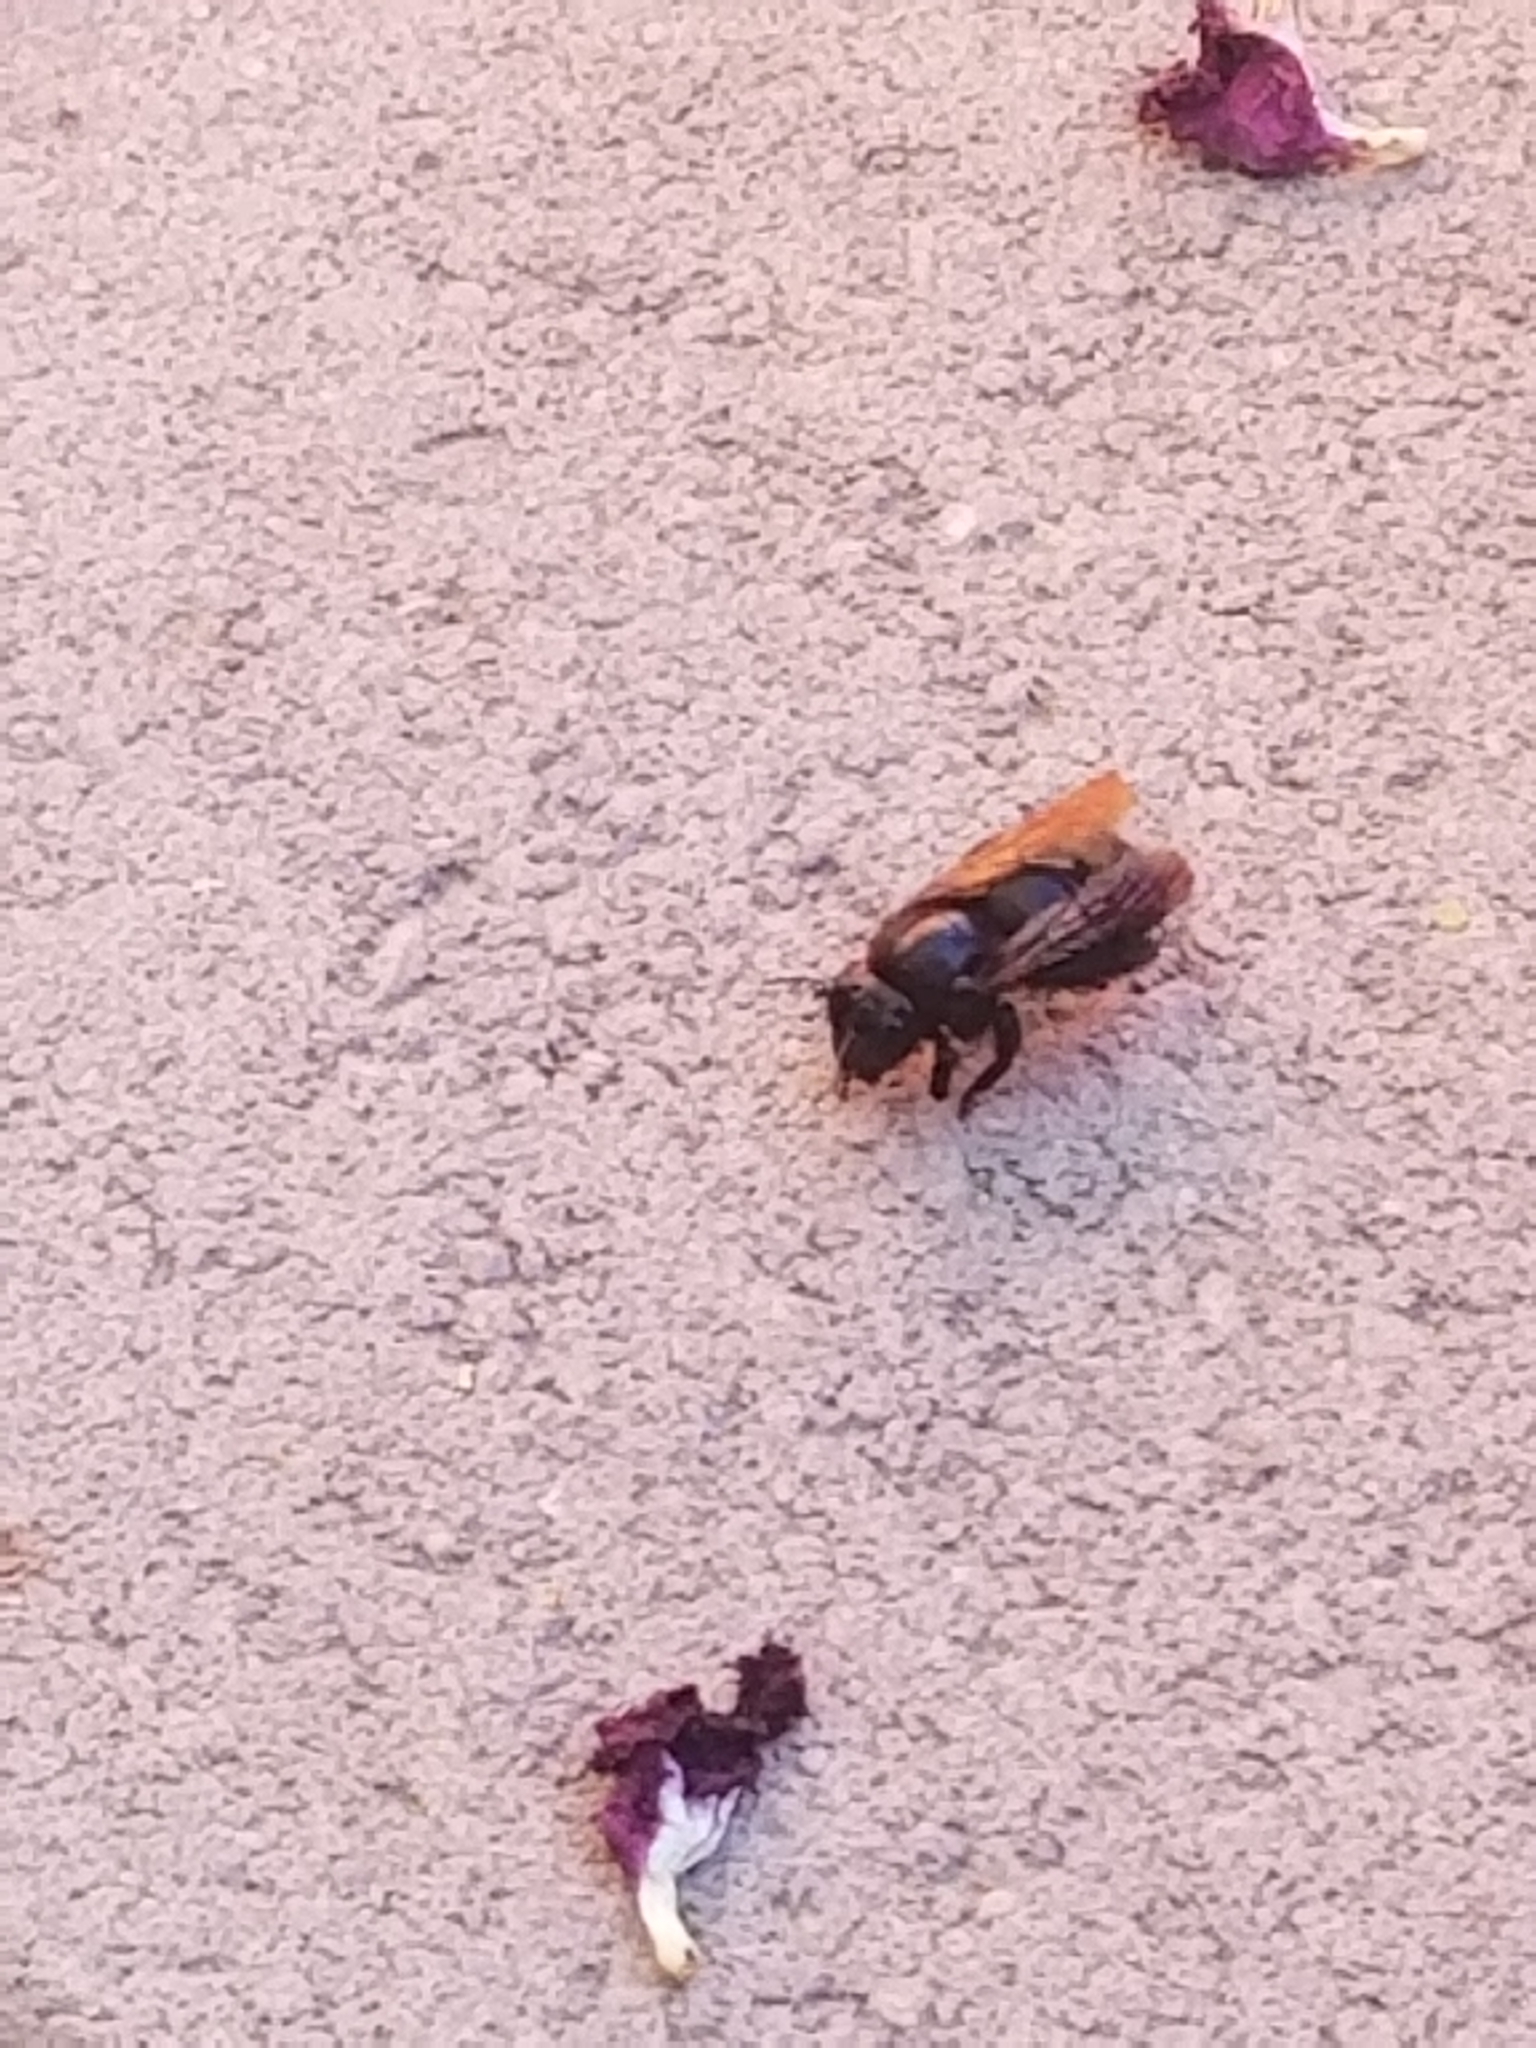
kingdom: Animalia
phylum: Arthropoda
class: Insecta
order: Hymenoptera
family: Apidae
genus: Xylocopa
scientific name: Xylocopa sonorina
